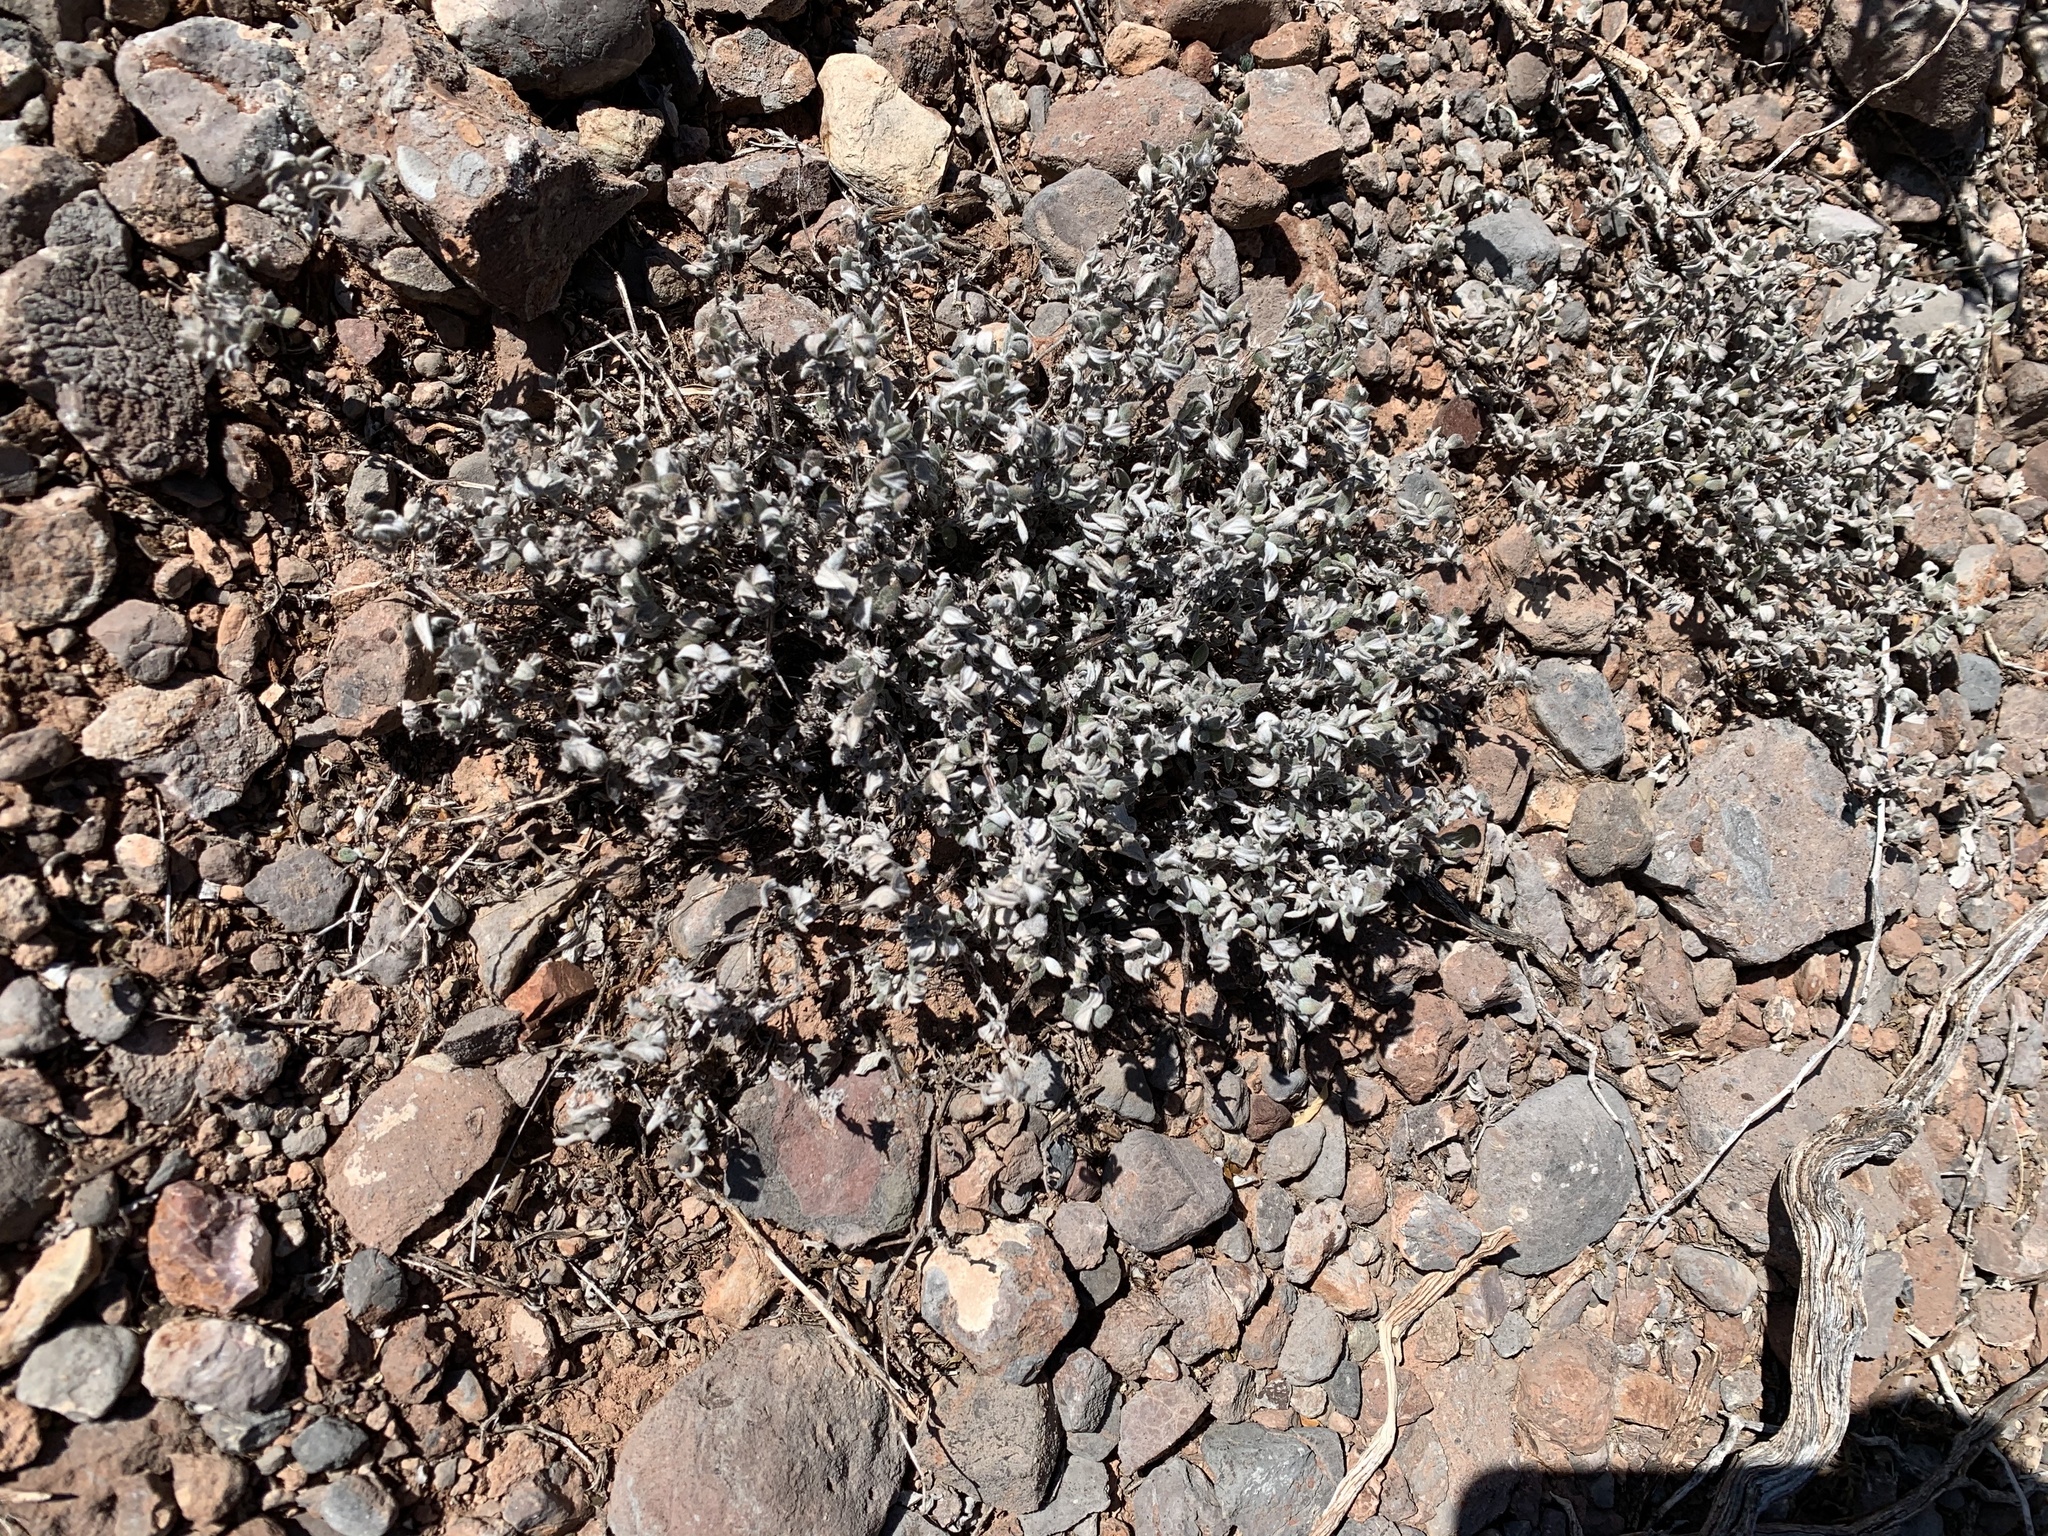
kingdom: Plantae
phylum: Tracheophyta
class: Magnoliopsida
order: Boraginales
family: Ehretiaceae
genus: Tiquilia
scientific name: Tiquilia canescens
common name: Hairy tiquilia
